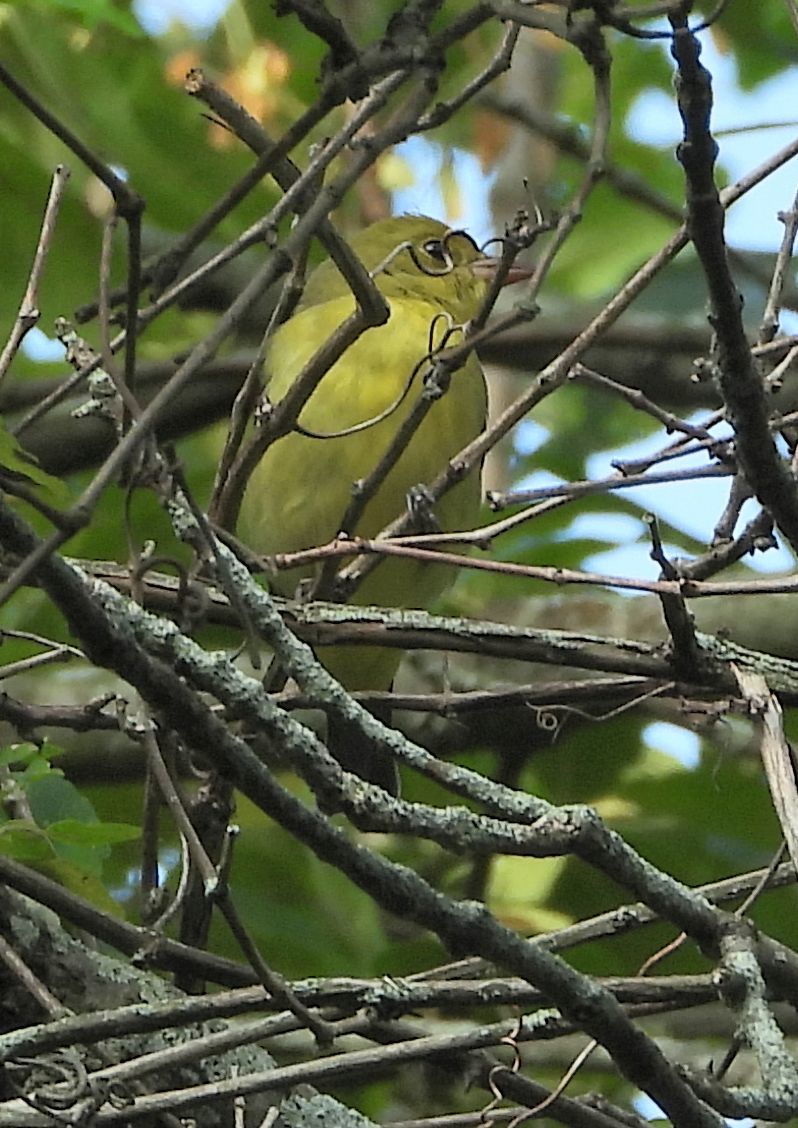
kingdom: Animalia
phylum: Chordata
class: Aves
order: Passeriformes
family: Cardinalidae
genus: Piranga
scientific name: Piranga olivacea
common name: Scarlet tanager
